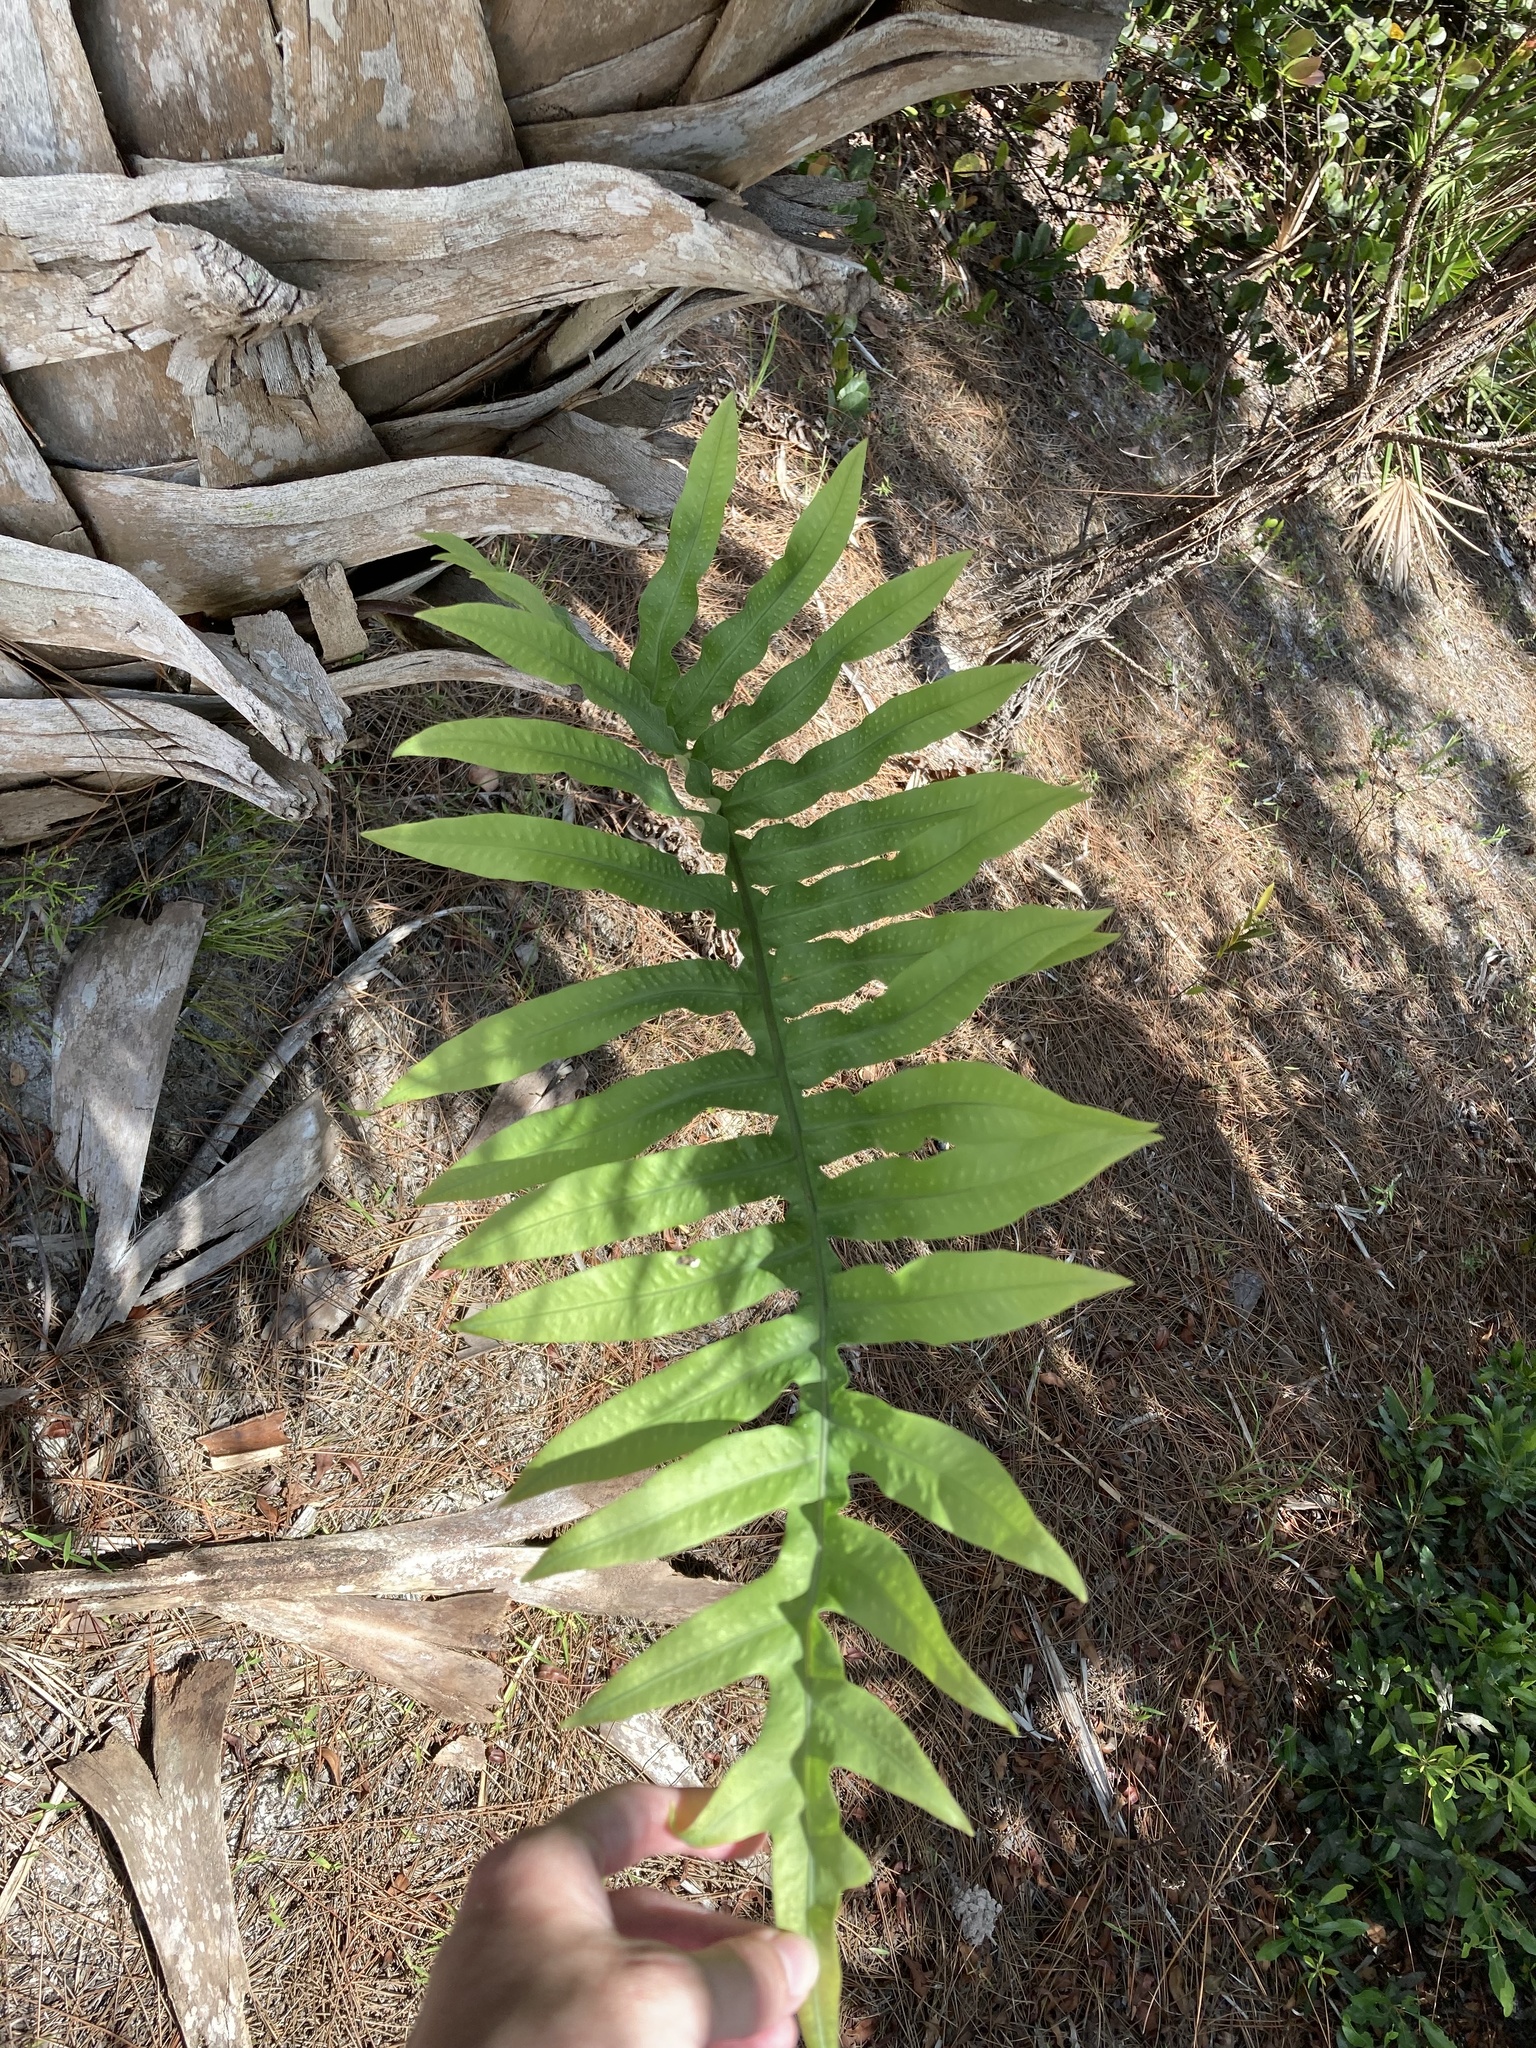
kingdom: Plantae
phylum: Tracheophyta
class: Polypodiopsida
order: Polypodiales
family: Polypodiaceae
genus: Phlebodium
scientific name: Phlebodium aureum
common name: Gold-foot fern
